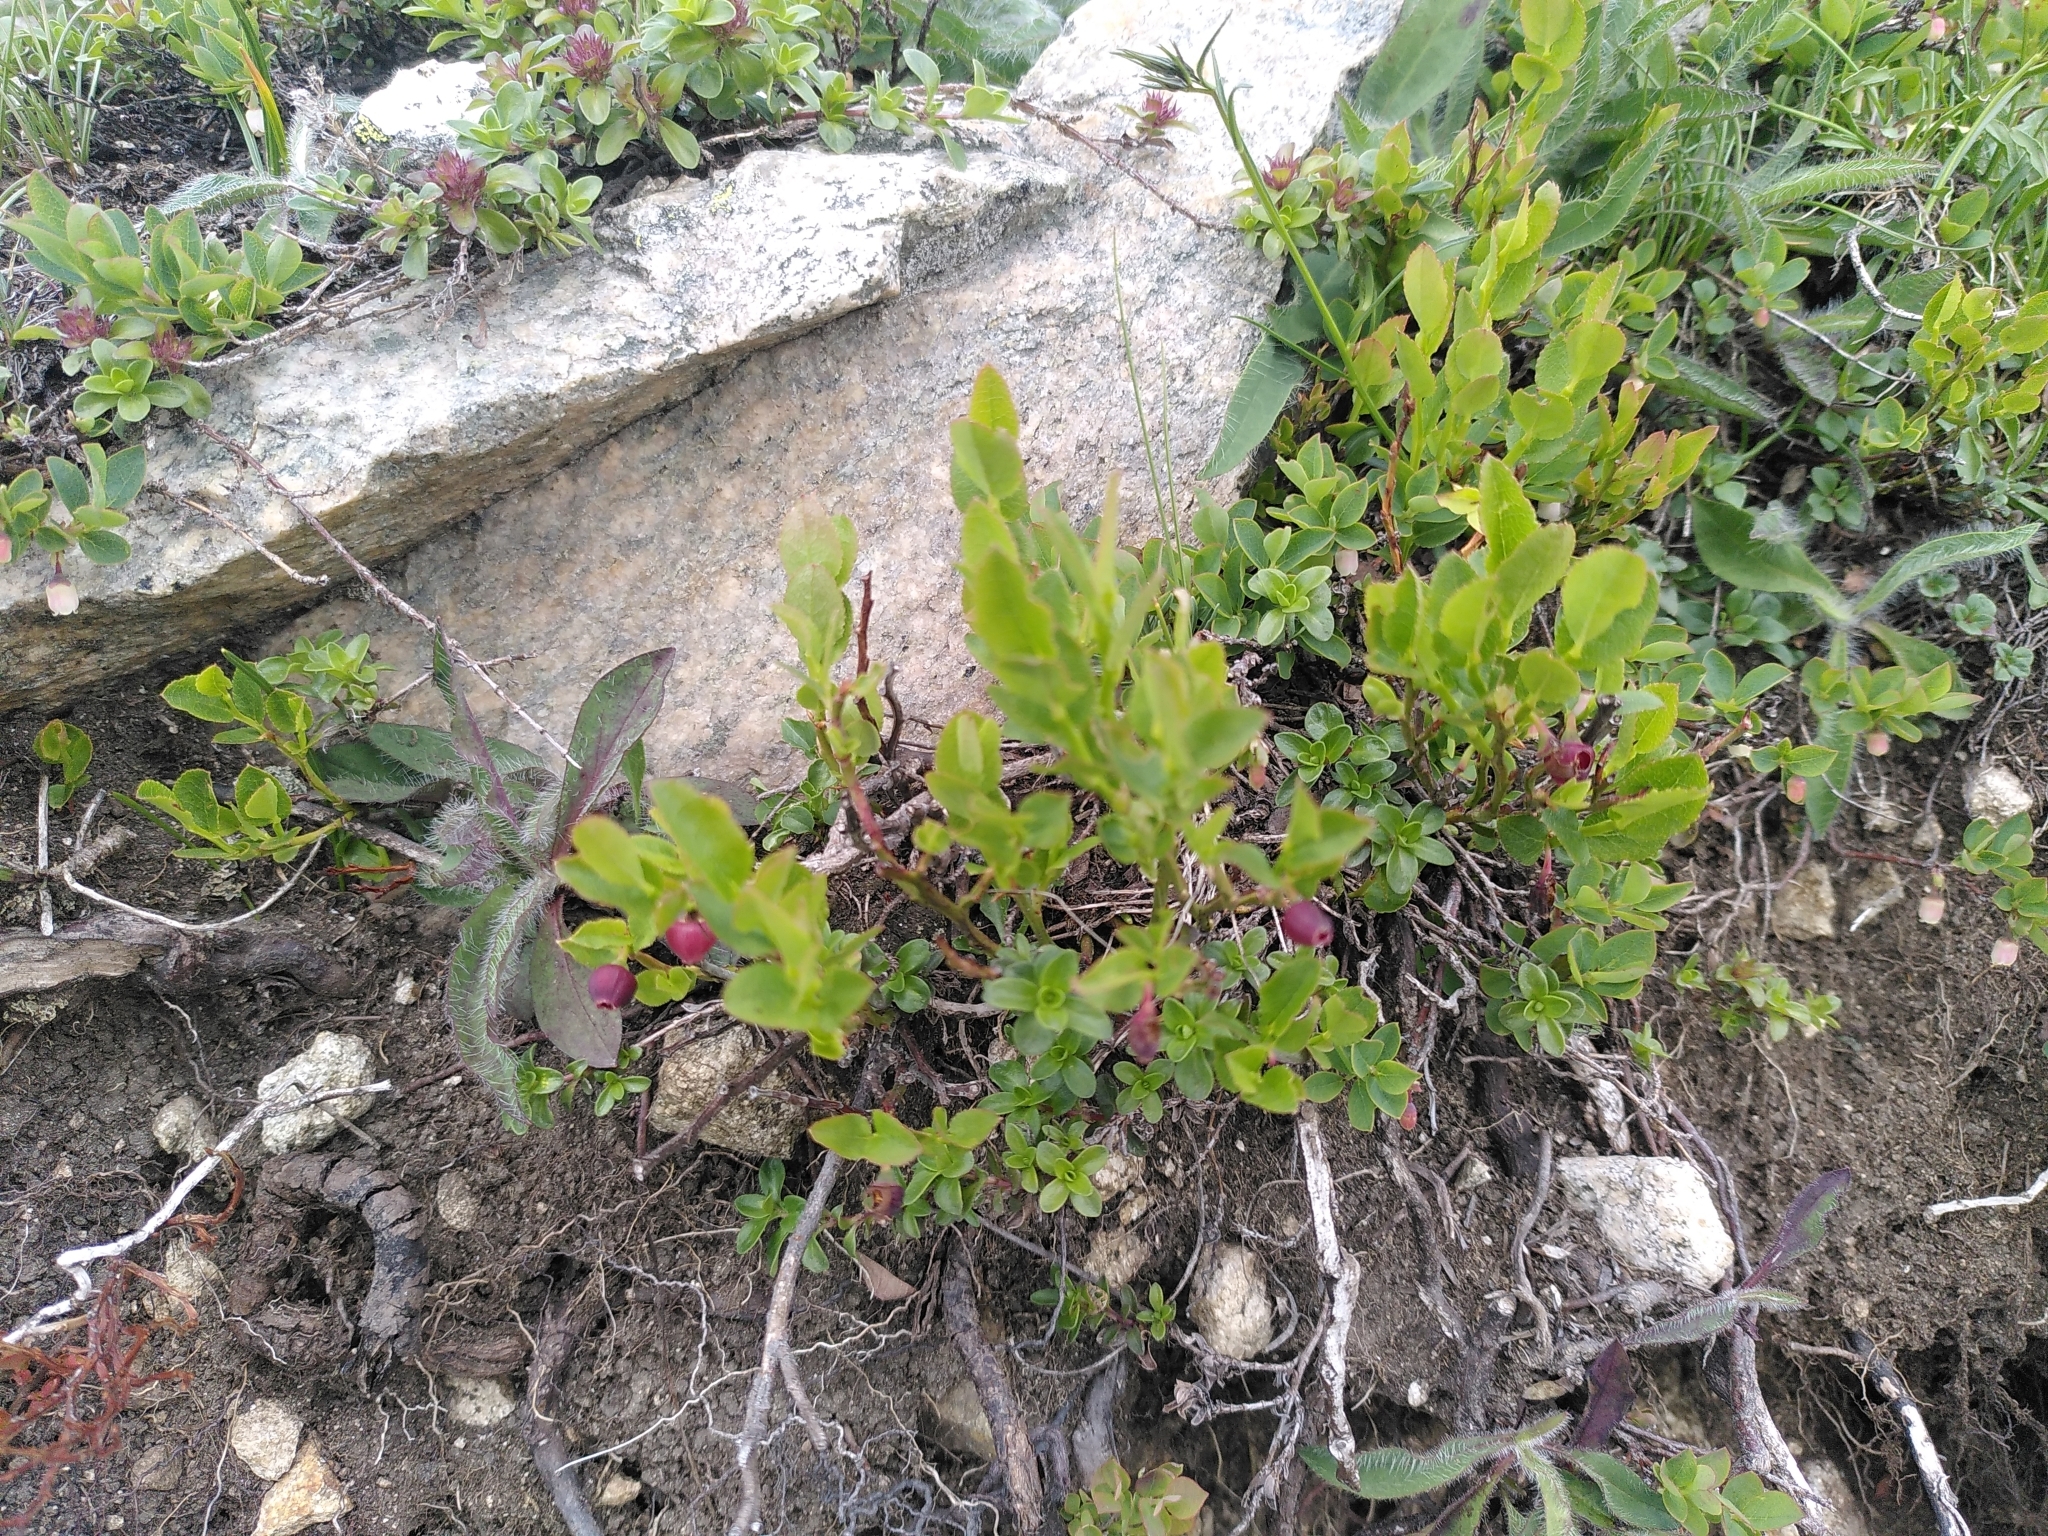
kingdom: Plantae
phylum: Tracheophyta
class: Magnoliopsida
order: Ericales
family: Ericaceae
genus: Vaccinium
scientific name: Vaccinium myrtillus
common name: Bilberry
